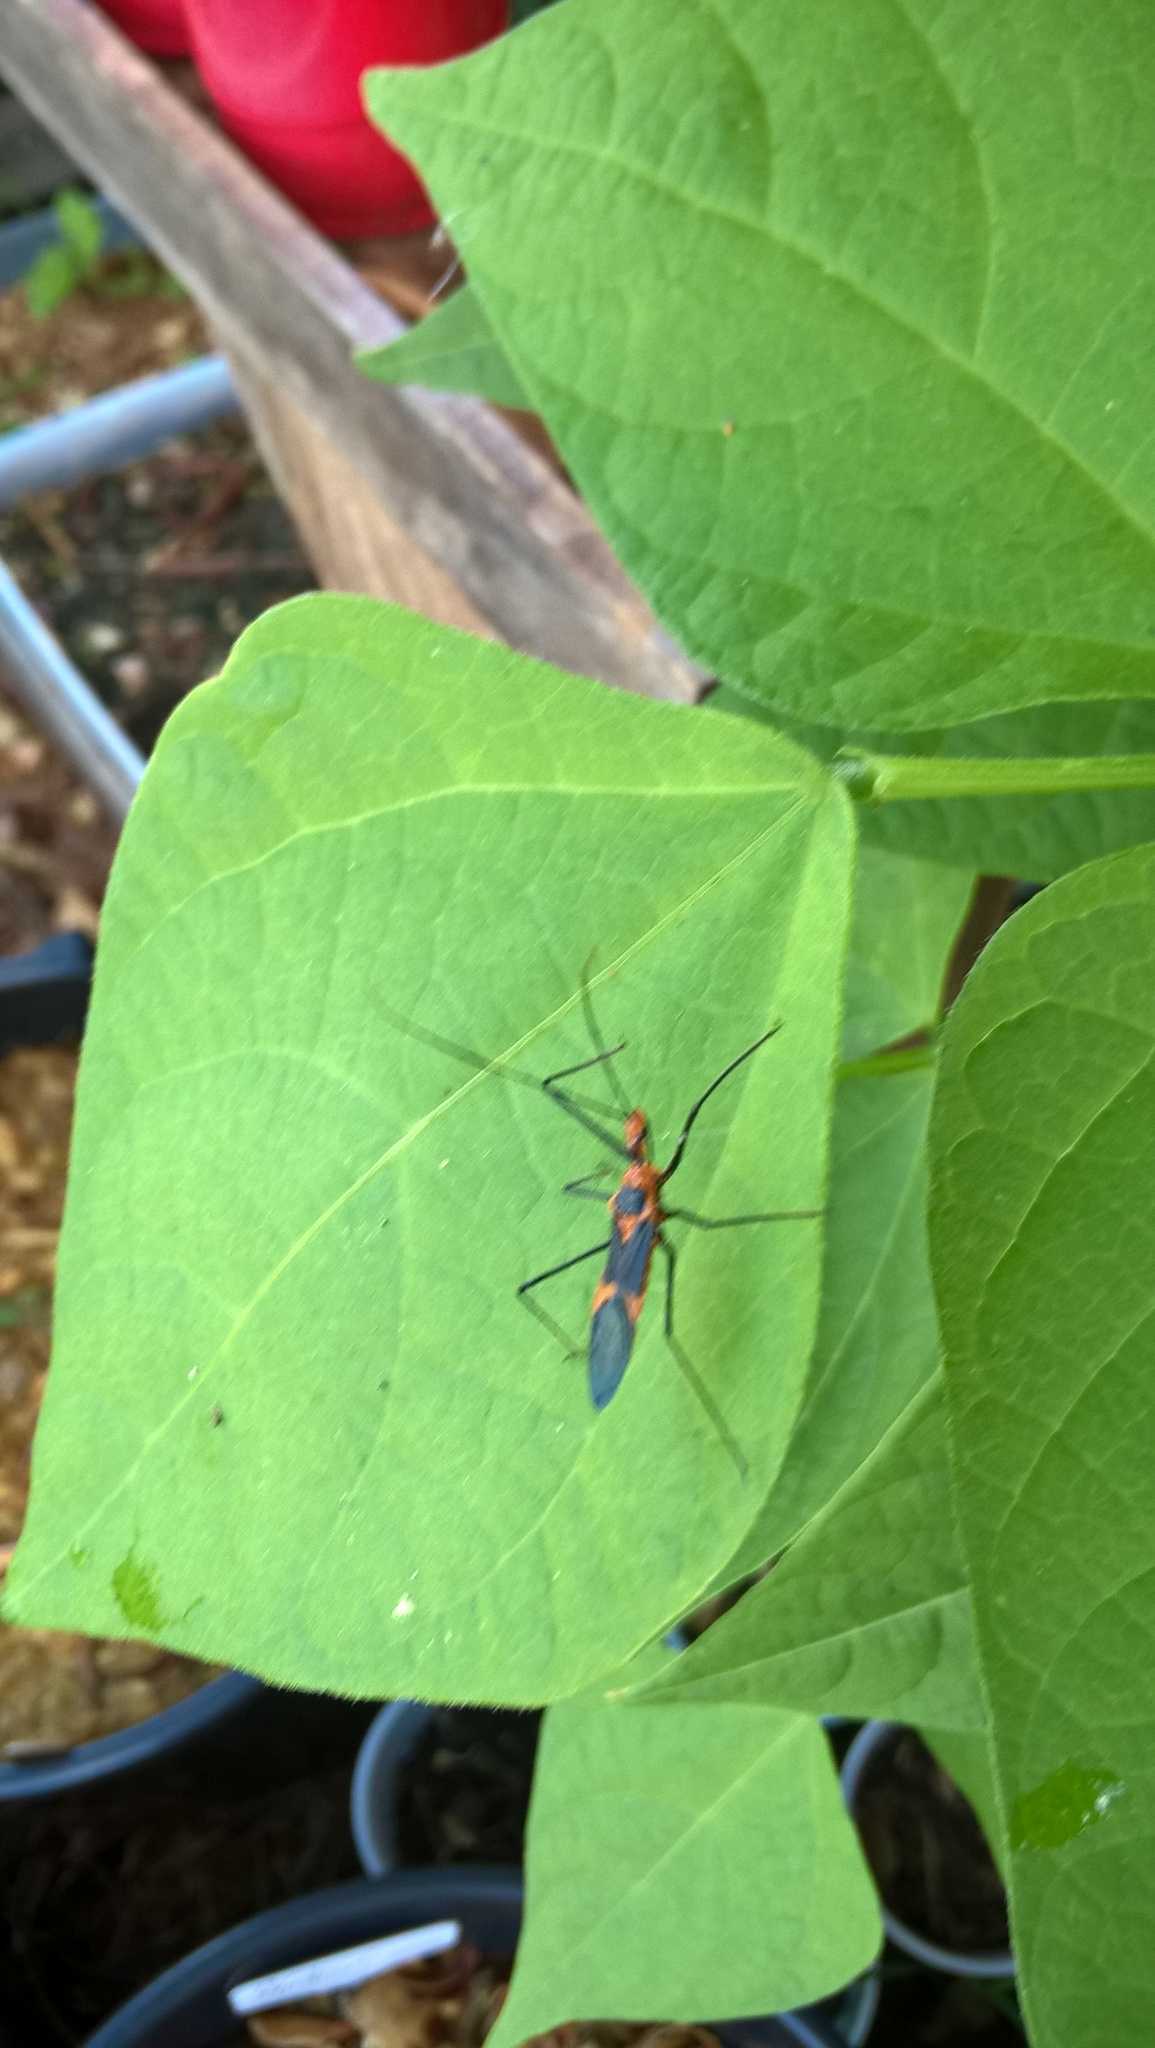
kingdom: Animalia
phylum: Arthropoda
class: Insecta
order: Hemiptera
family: Reduviidae
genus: Zelus
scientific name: Zelus longipes
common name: Milkweed assassin bug
